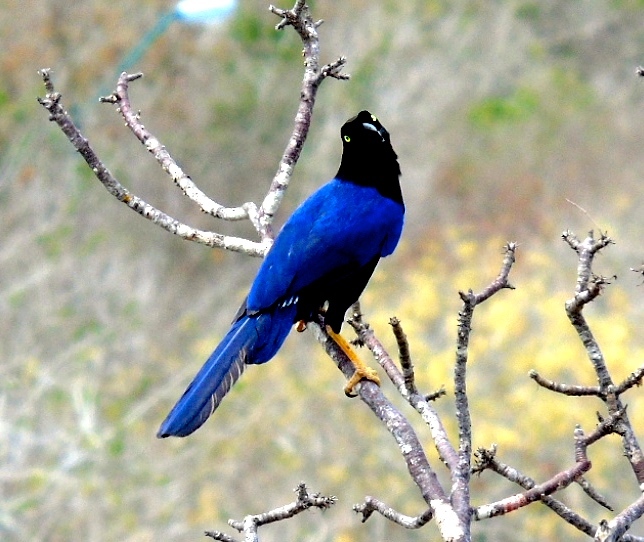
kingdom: Animalia
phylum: Chordata
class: Aves
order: Passeriformes
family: Corvidae
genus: Cyanocorax
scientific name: Cyanocorax beecheii
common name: Purplish-backed jay
